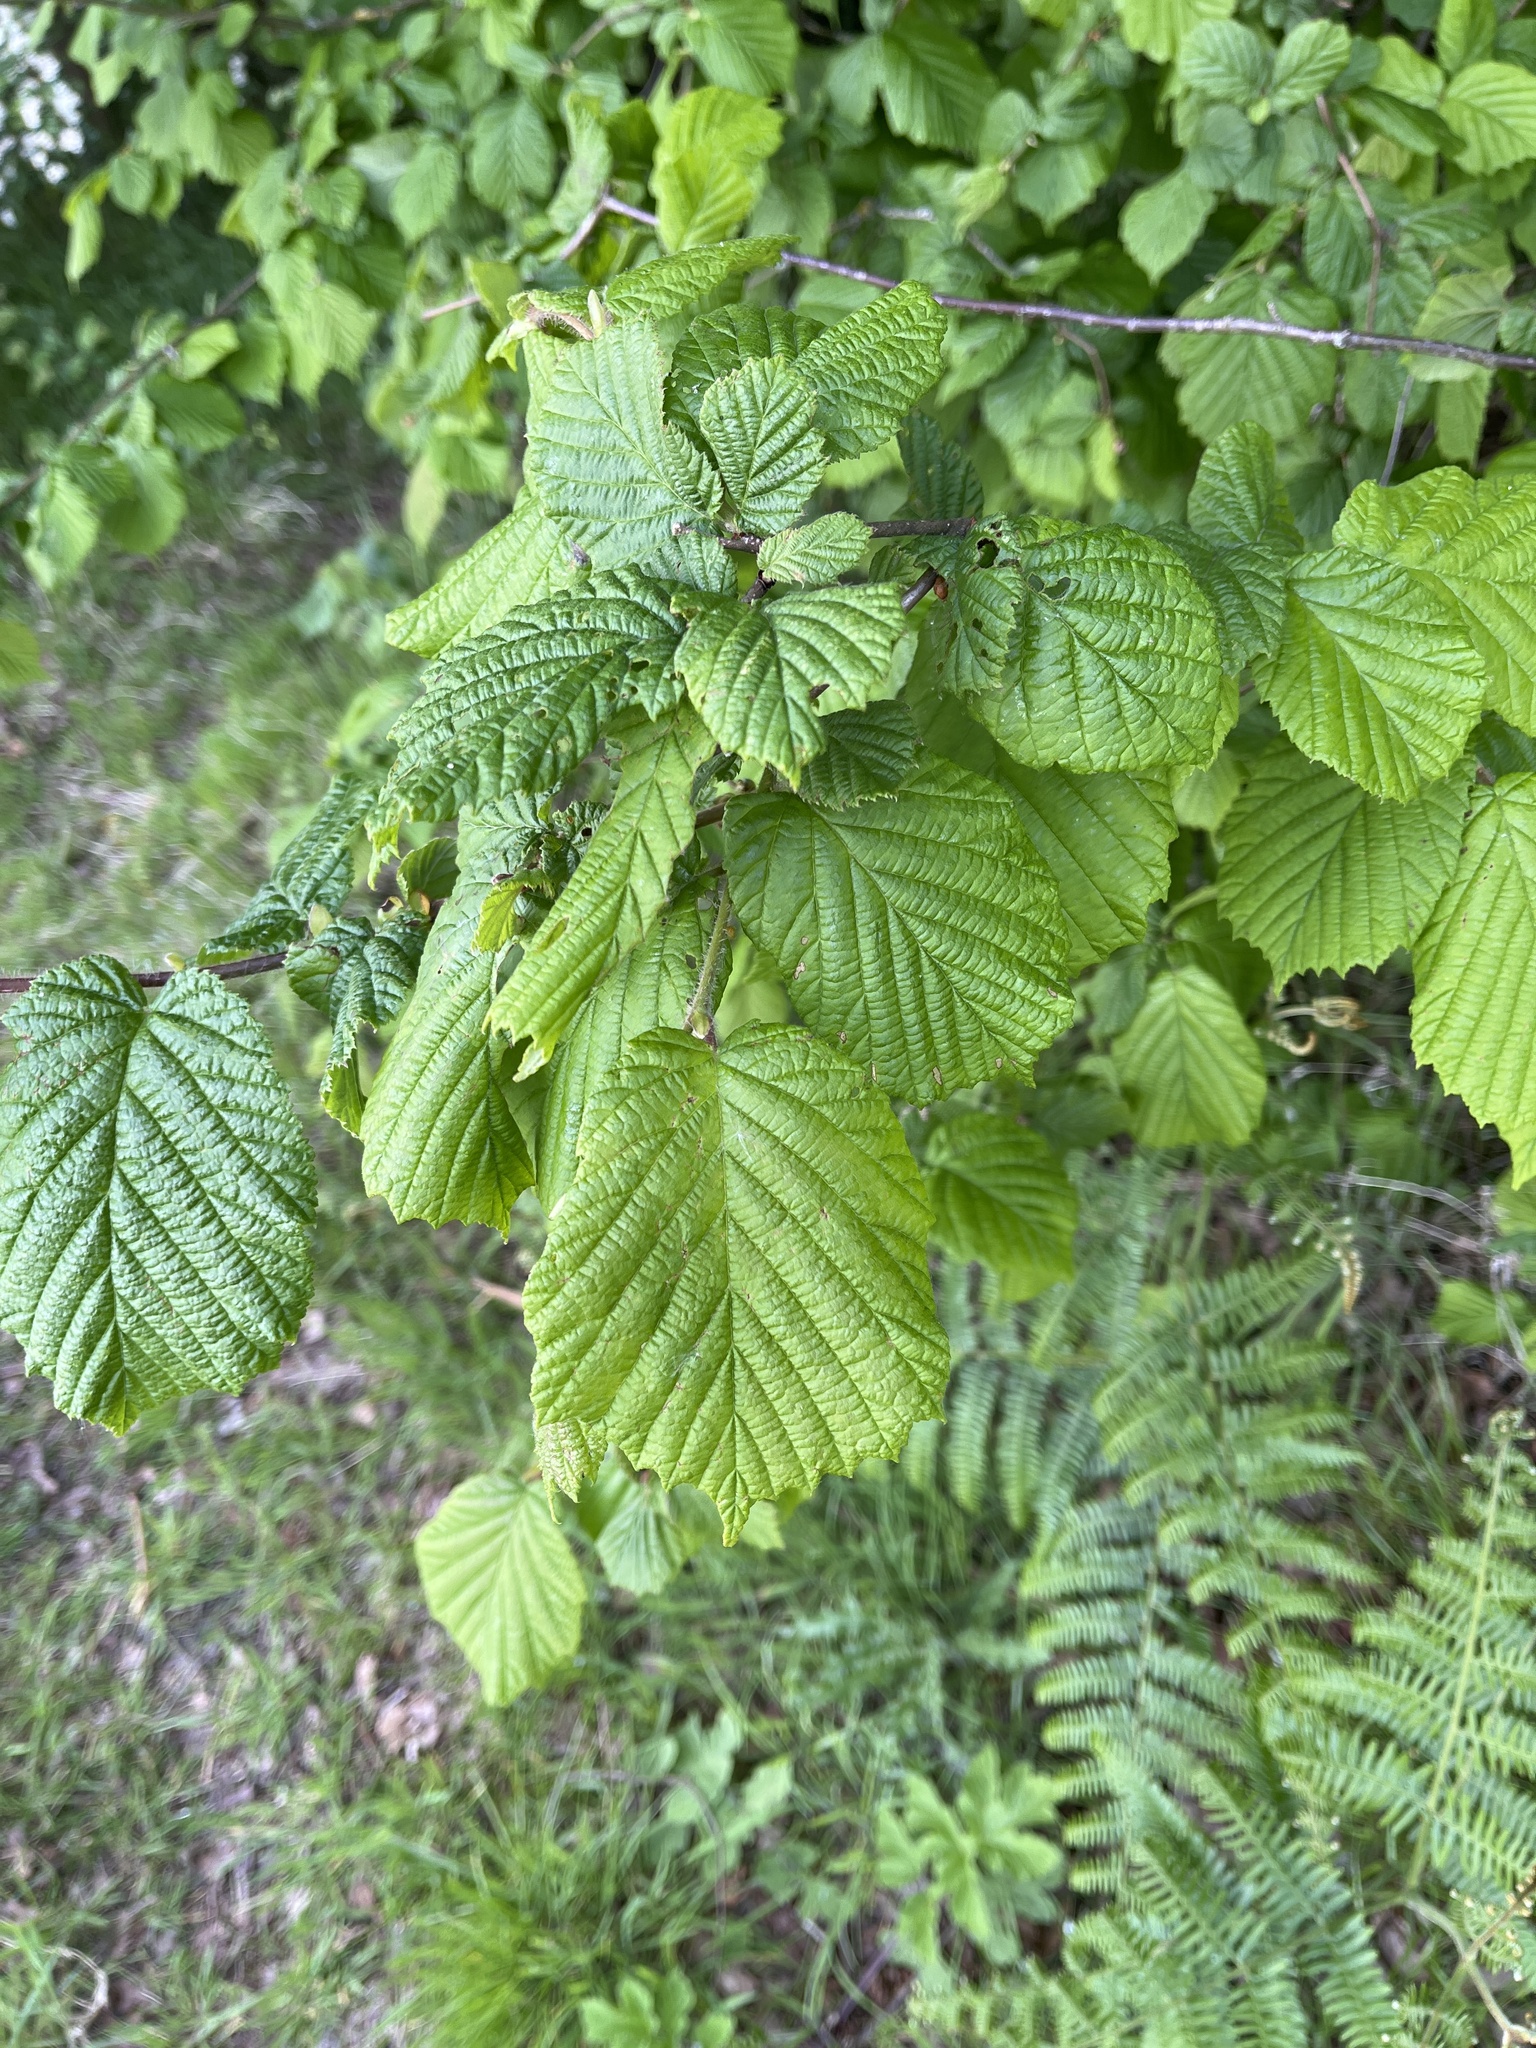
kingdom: Plantae
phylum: Tracheophyta
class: Magnoliopsida
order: Fagales
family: Betulaceae
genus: Corylus
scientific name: Corylus avellana
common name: European hazel
